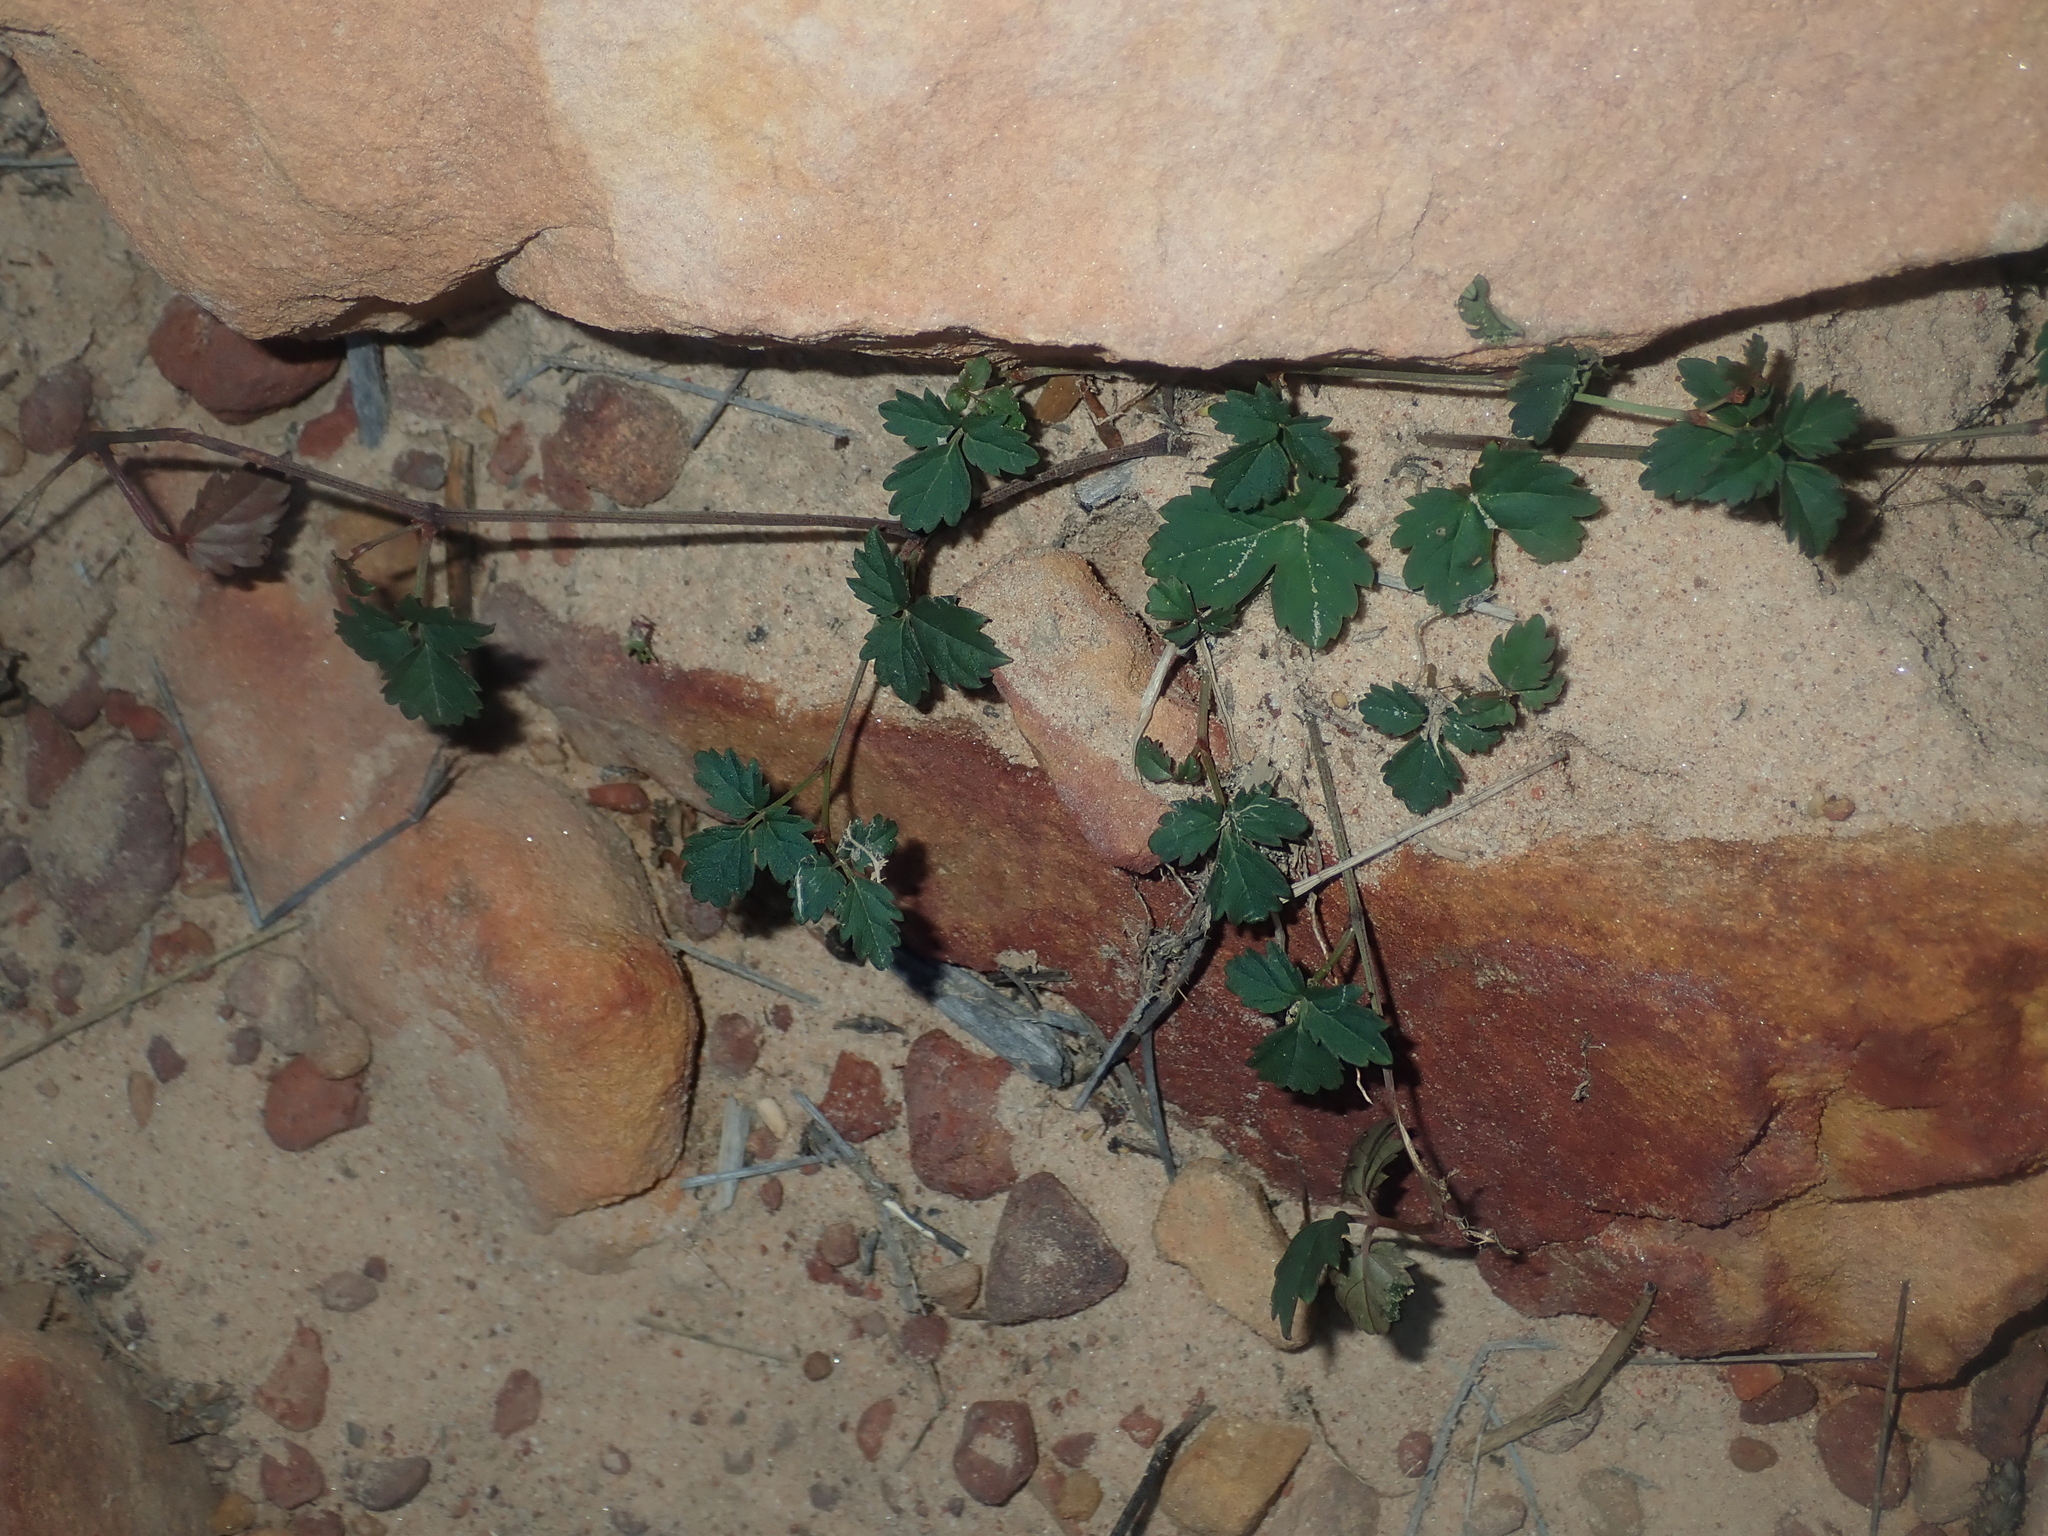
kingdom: Plantae
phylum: Tracheophyta
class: Magnoliopsida
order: Vitales
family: Vitaceae
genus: Clematicissus
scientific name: Clematicissus angustissima
